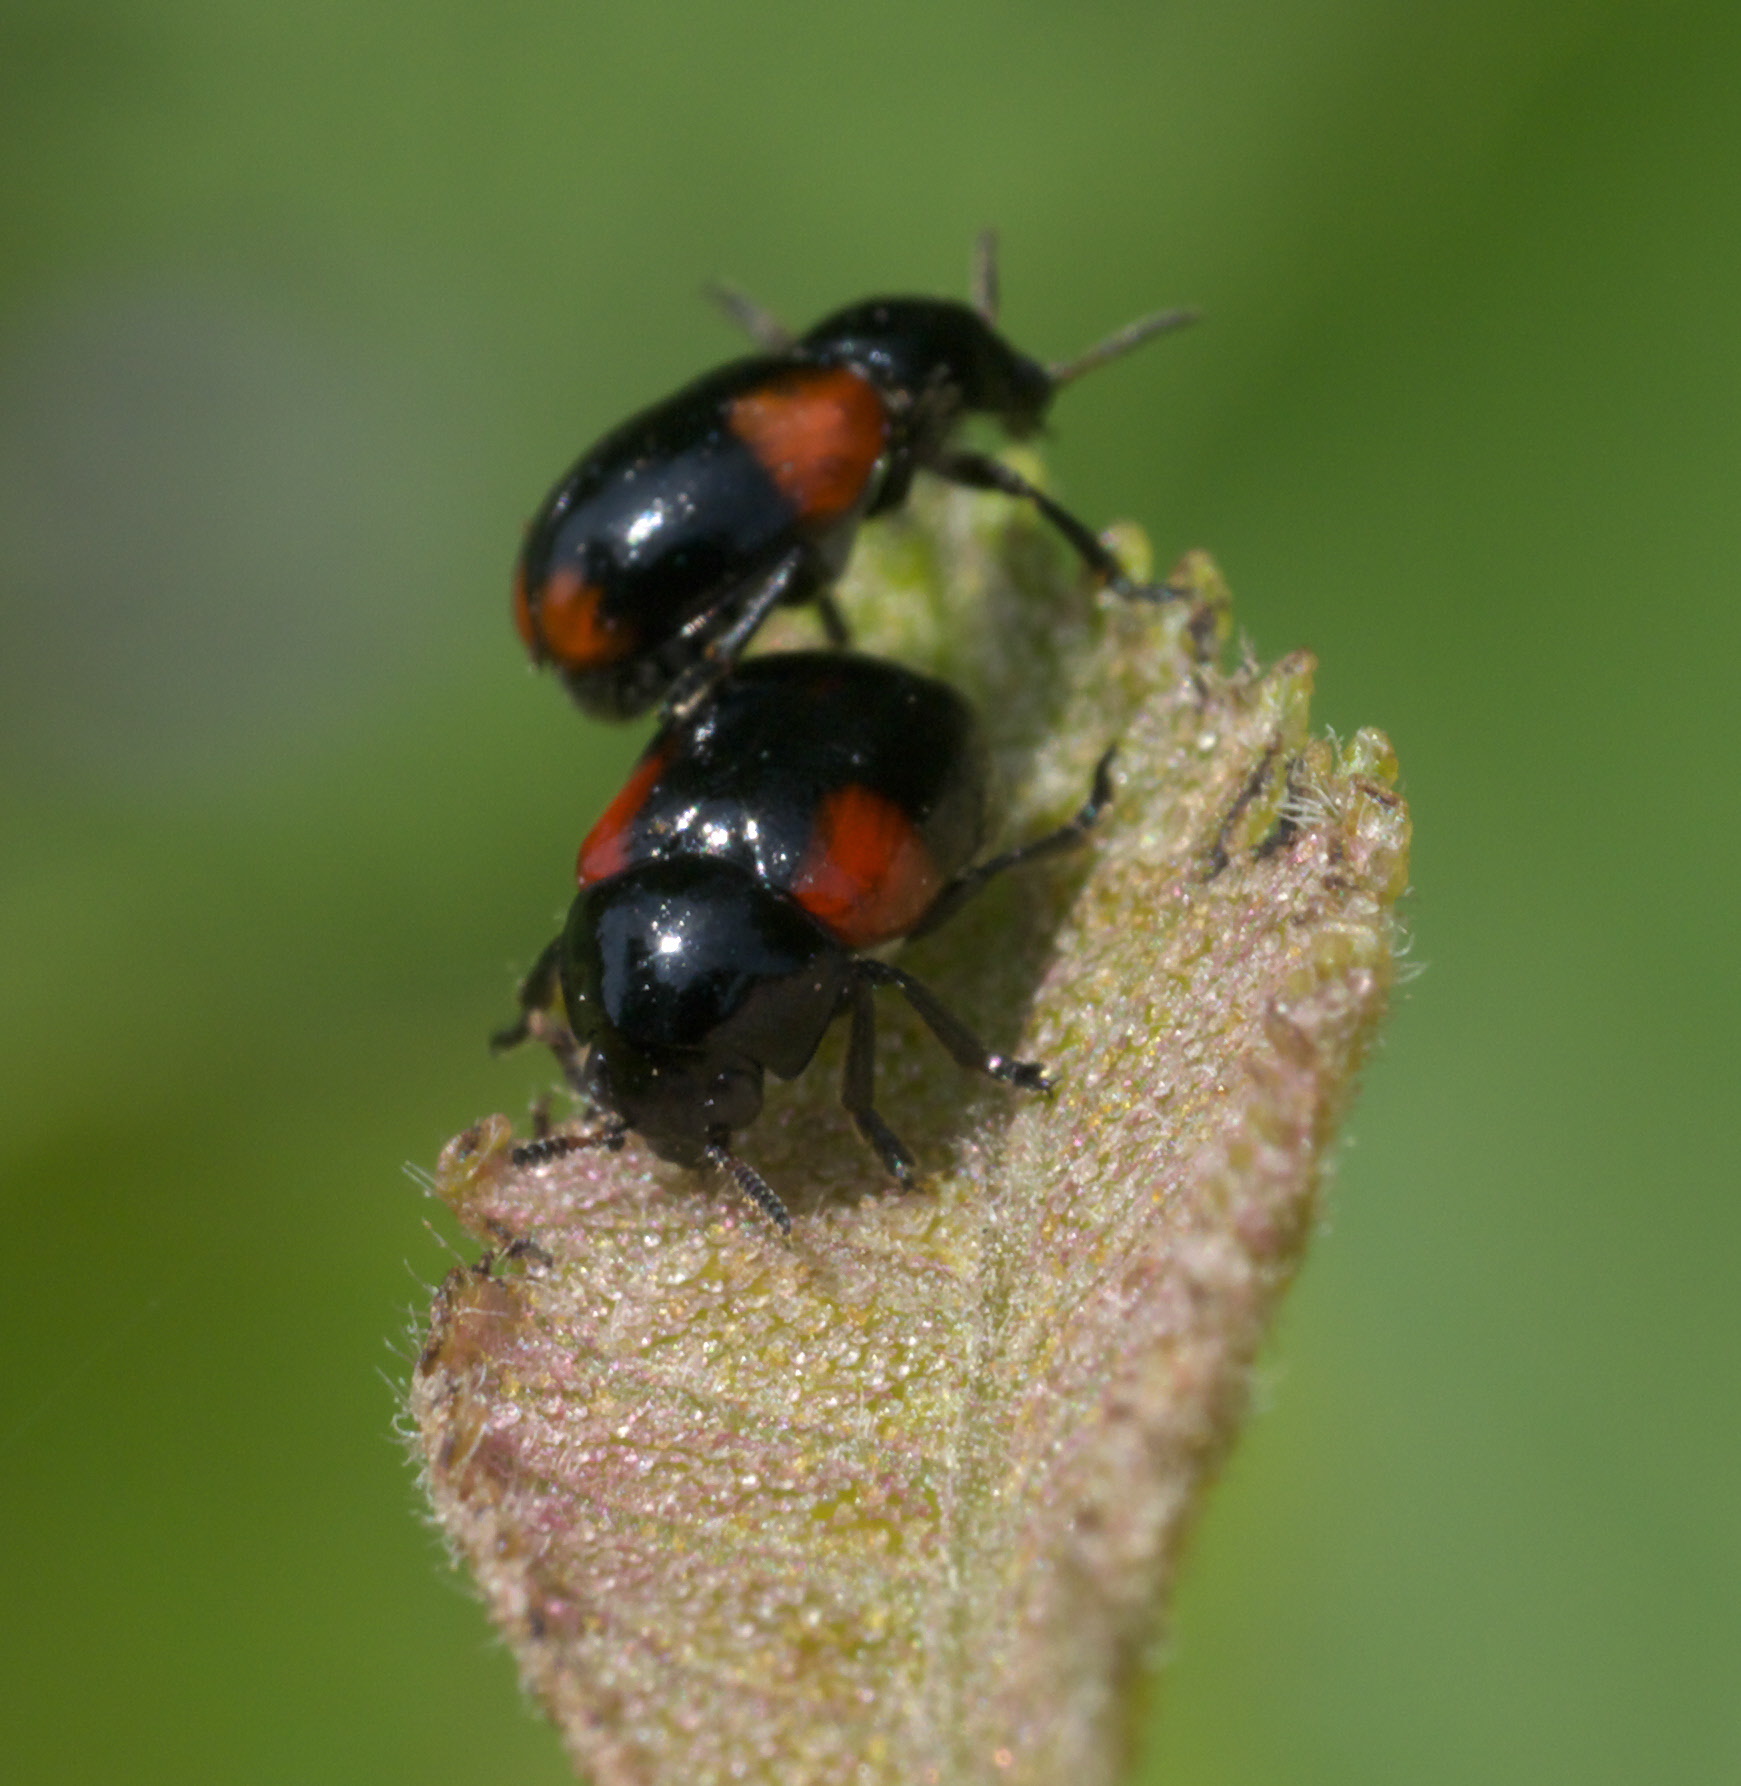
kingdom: Animalia
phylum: Arthropoda
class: Insecta
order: Coleoptera
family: Chrysomelidae
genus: Babia
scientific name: Babia quadriguttata
